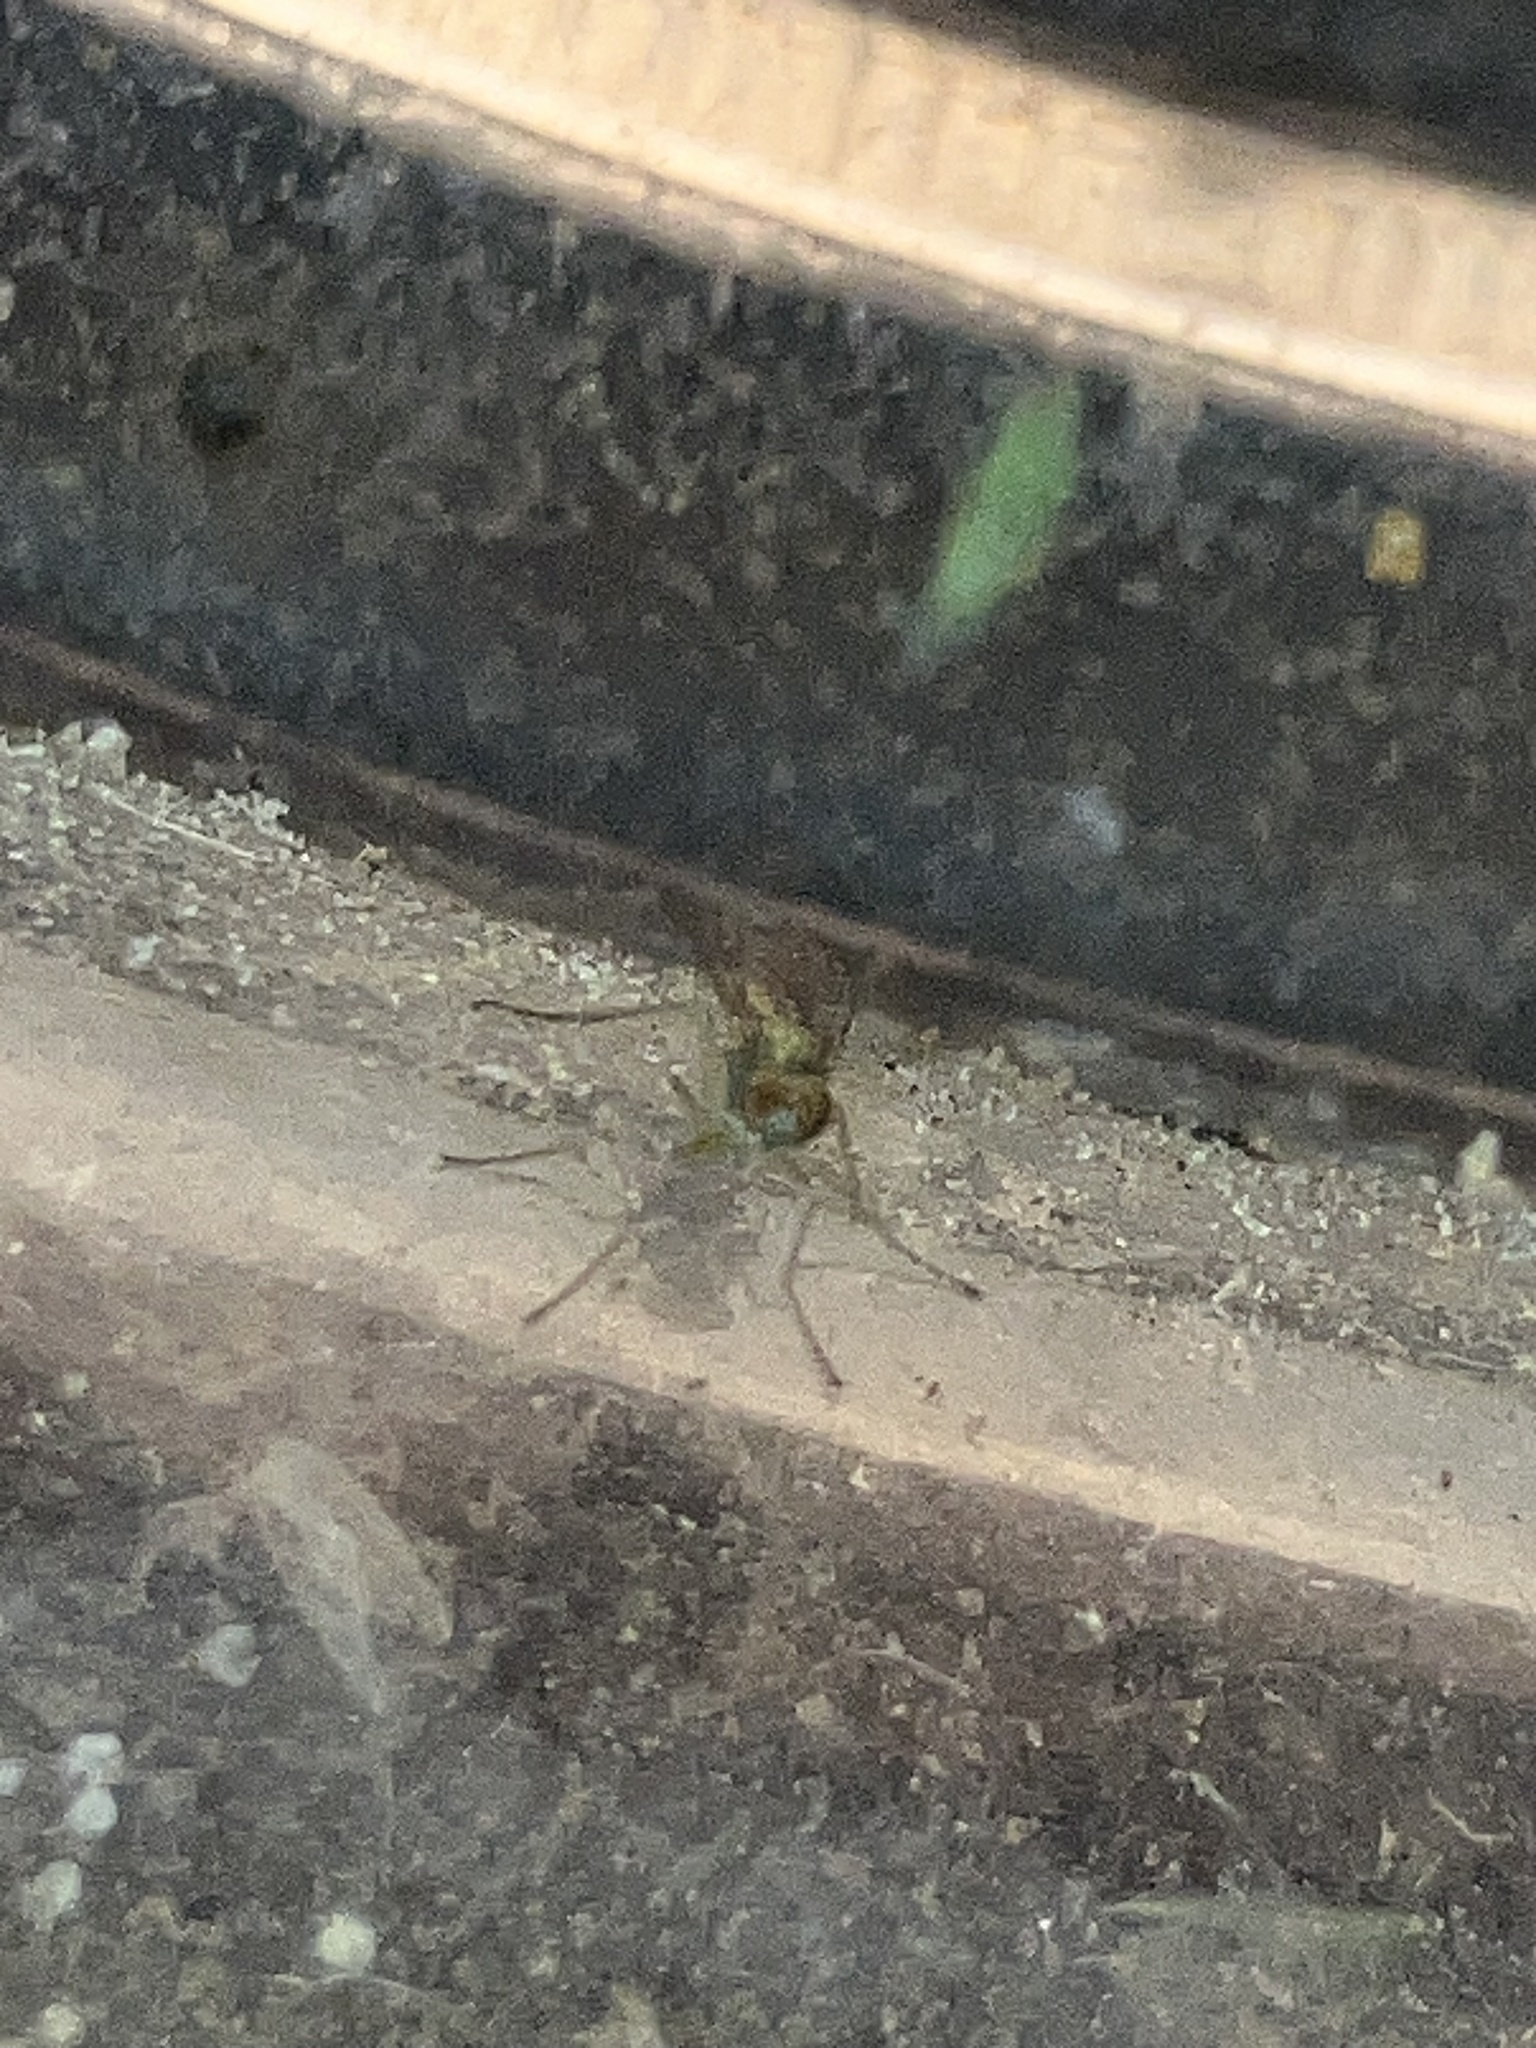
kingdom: Animalia
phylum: Arthropoda
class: Insecta
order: Diptera
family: Dolichopodidae
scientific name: Dolichopodidae
